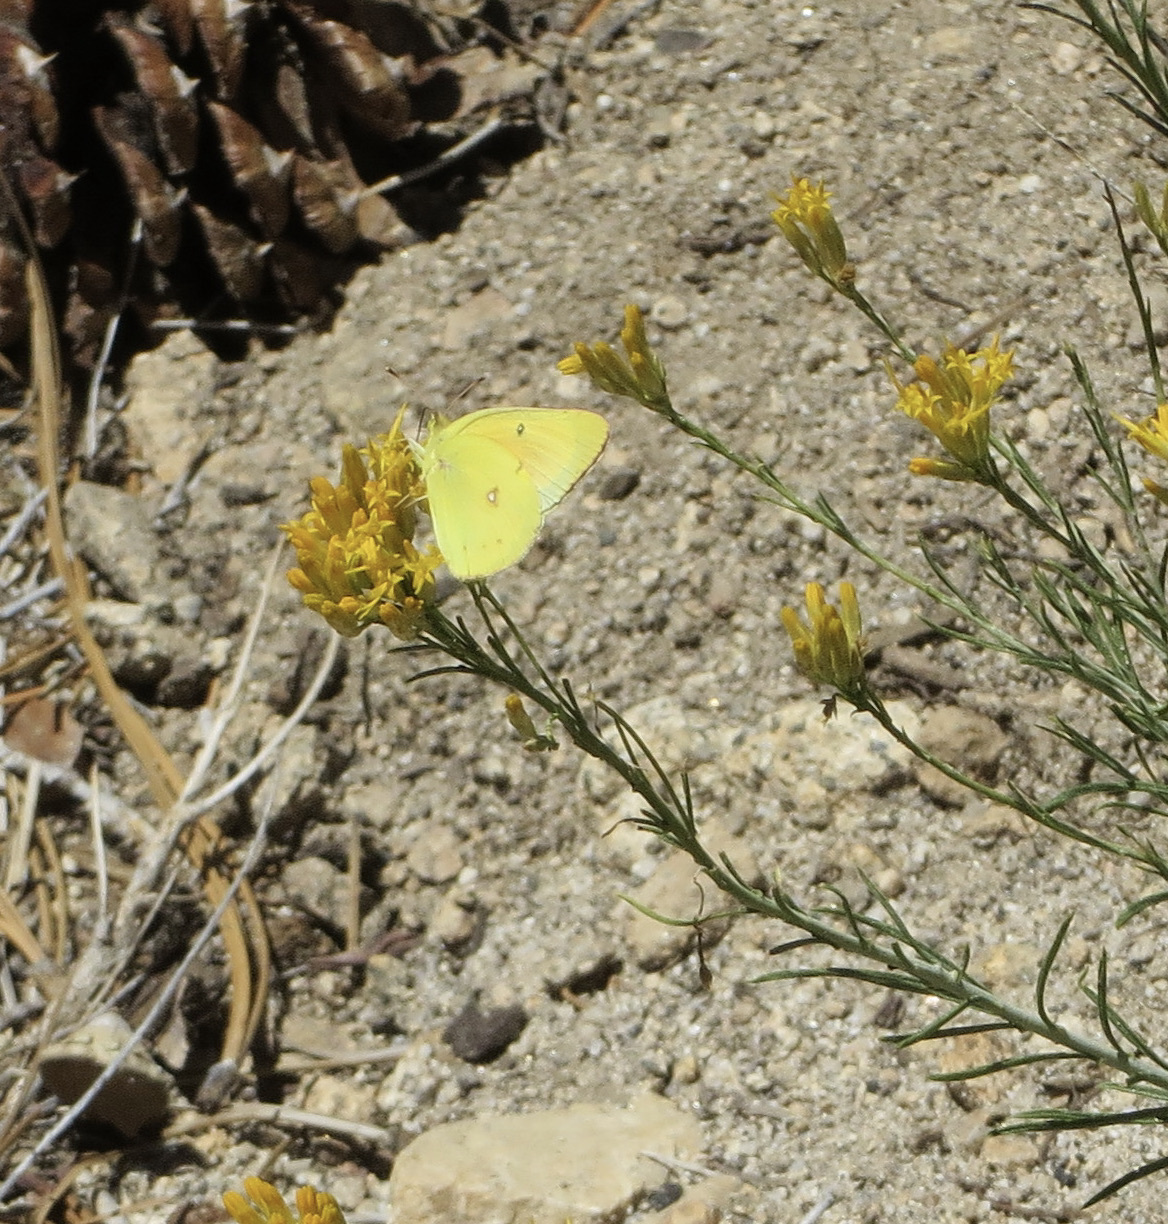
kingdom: Animalia
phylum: Arthropoda
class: Insecta
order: Lepidoptera
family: Pieridae
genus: Colias
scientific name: Colias eurytheme
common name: Alfalfa butterfly
